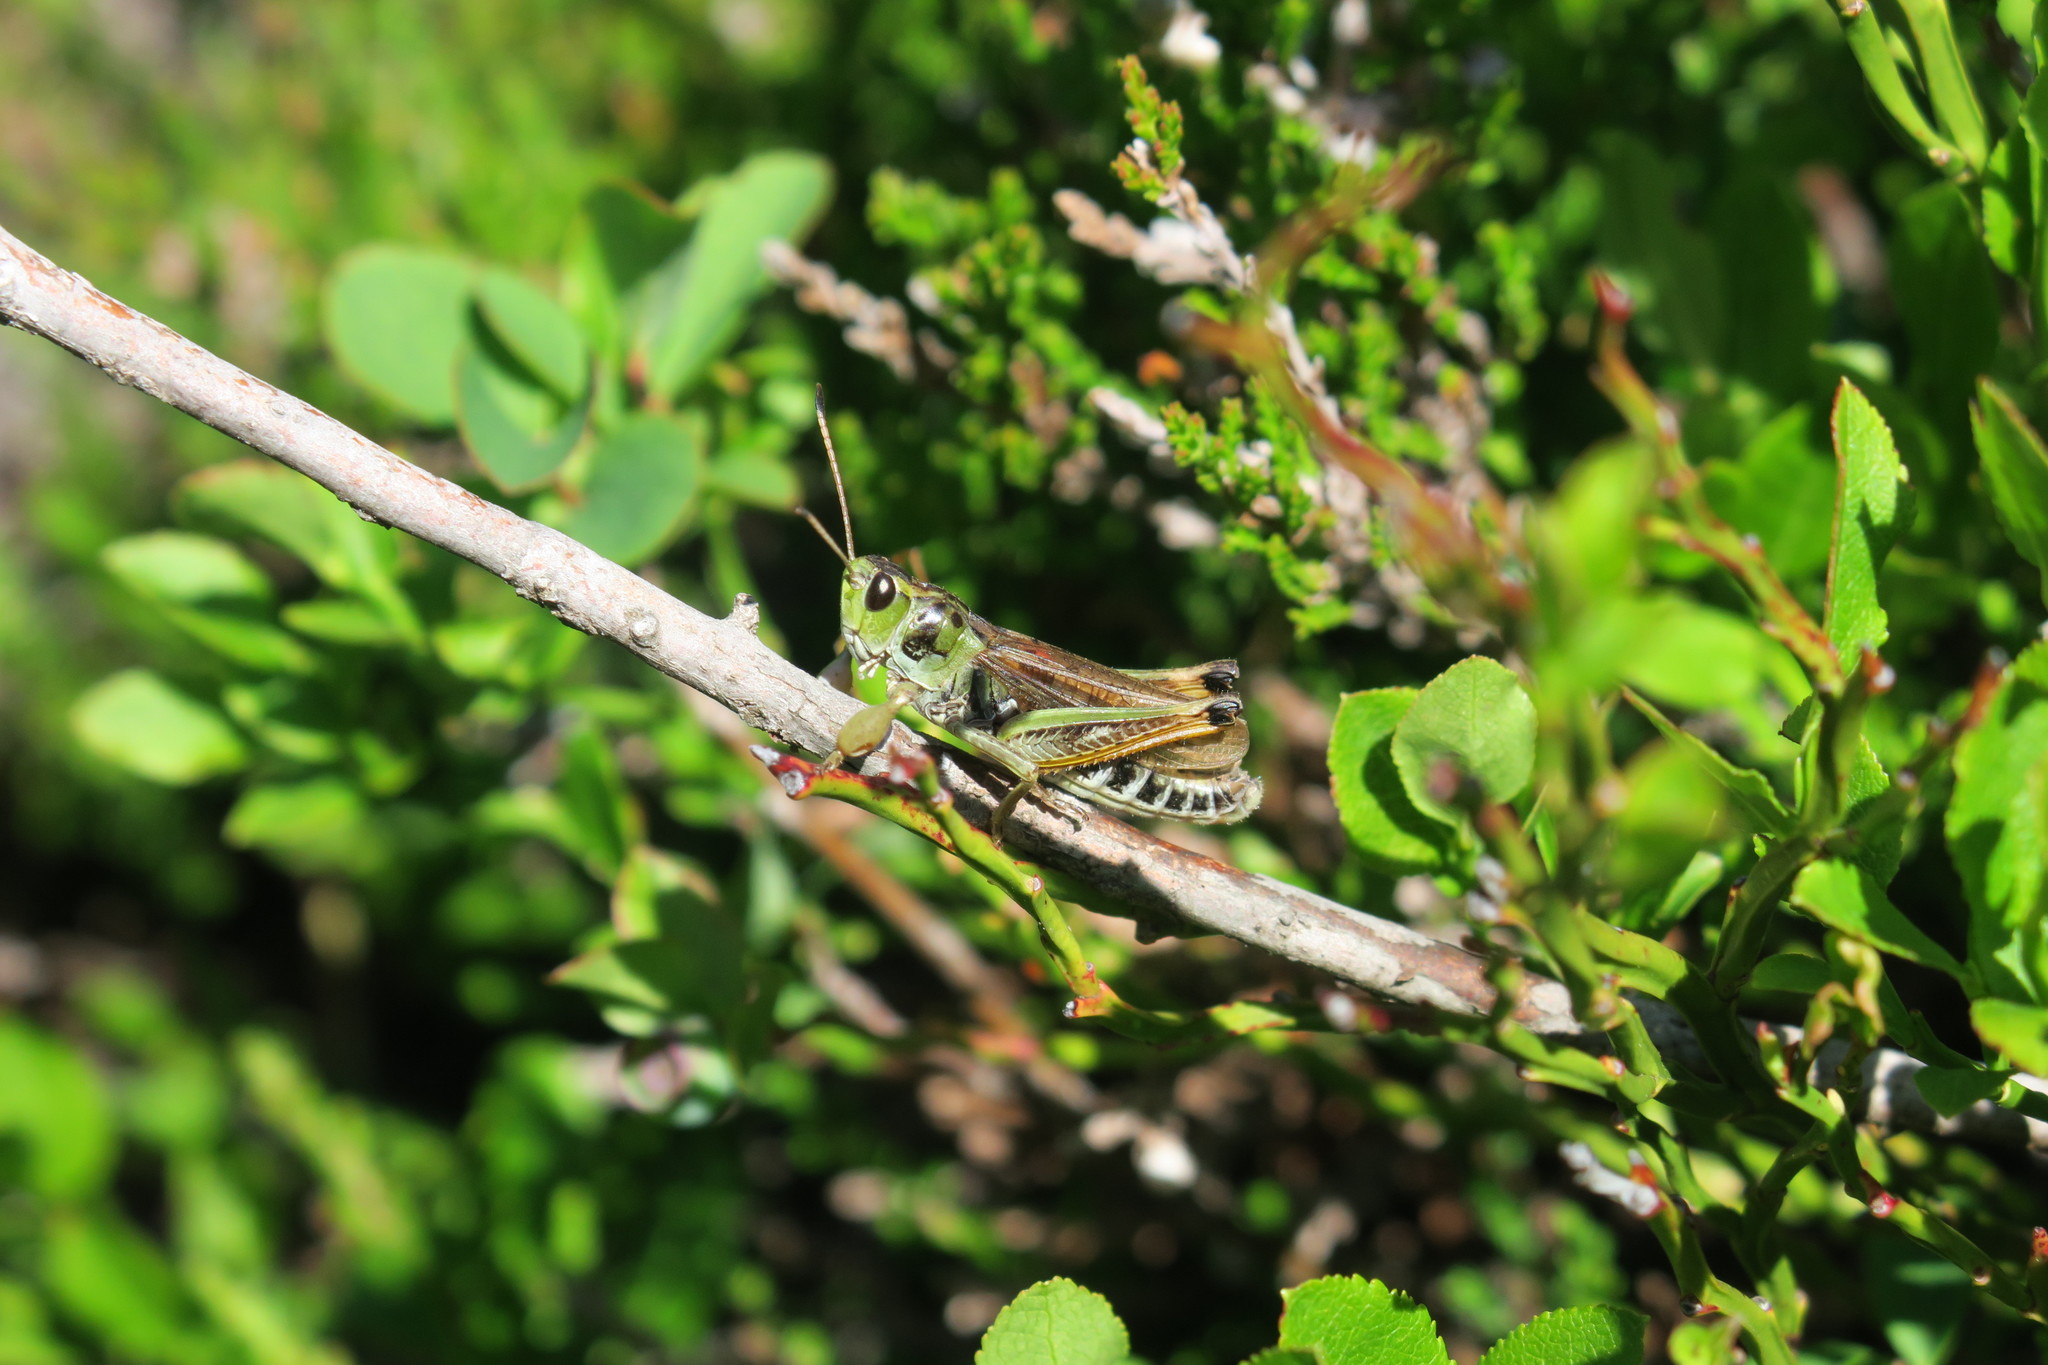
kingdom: Animalia
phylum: Arthropoda
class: Insecta
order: Orthoptera
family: Acrididae
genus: Gomphocerus
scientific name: Gomphocerus sibiricus
